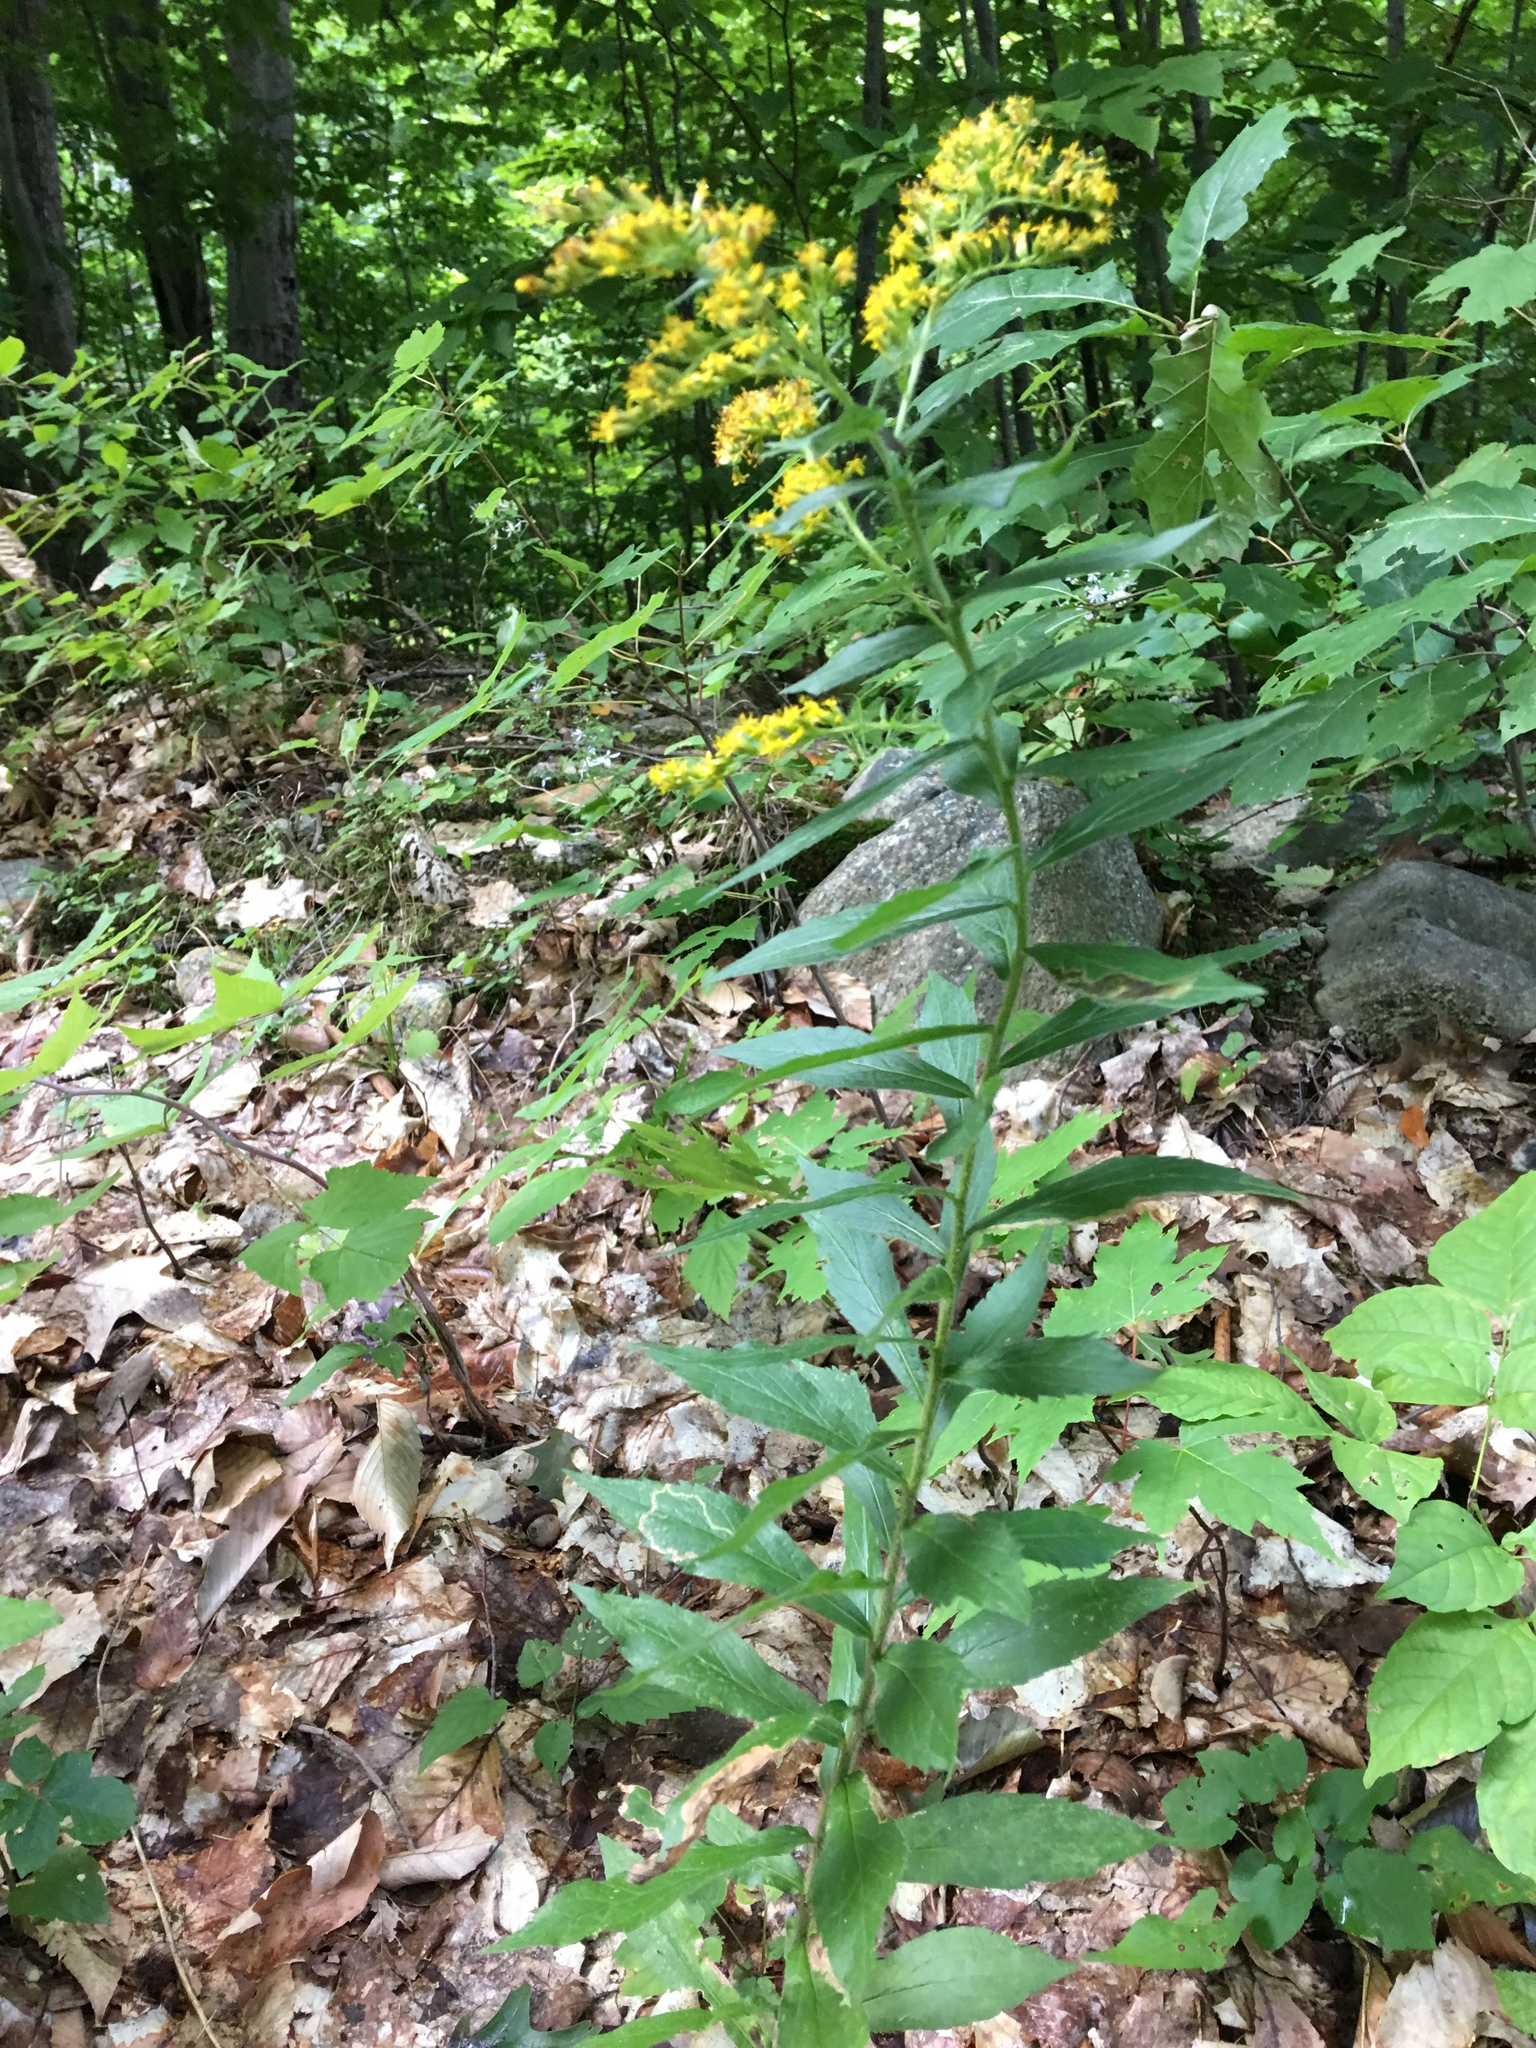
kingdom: Plantae
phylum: Tracheophyta
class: Magnoliopsida
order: Asterales
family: Asteraceae
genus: Solidago
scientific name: Solidago rugosa
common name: Rough-stemmed goldenrod
